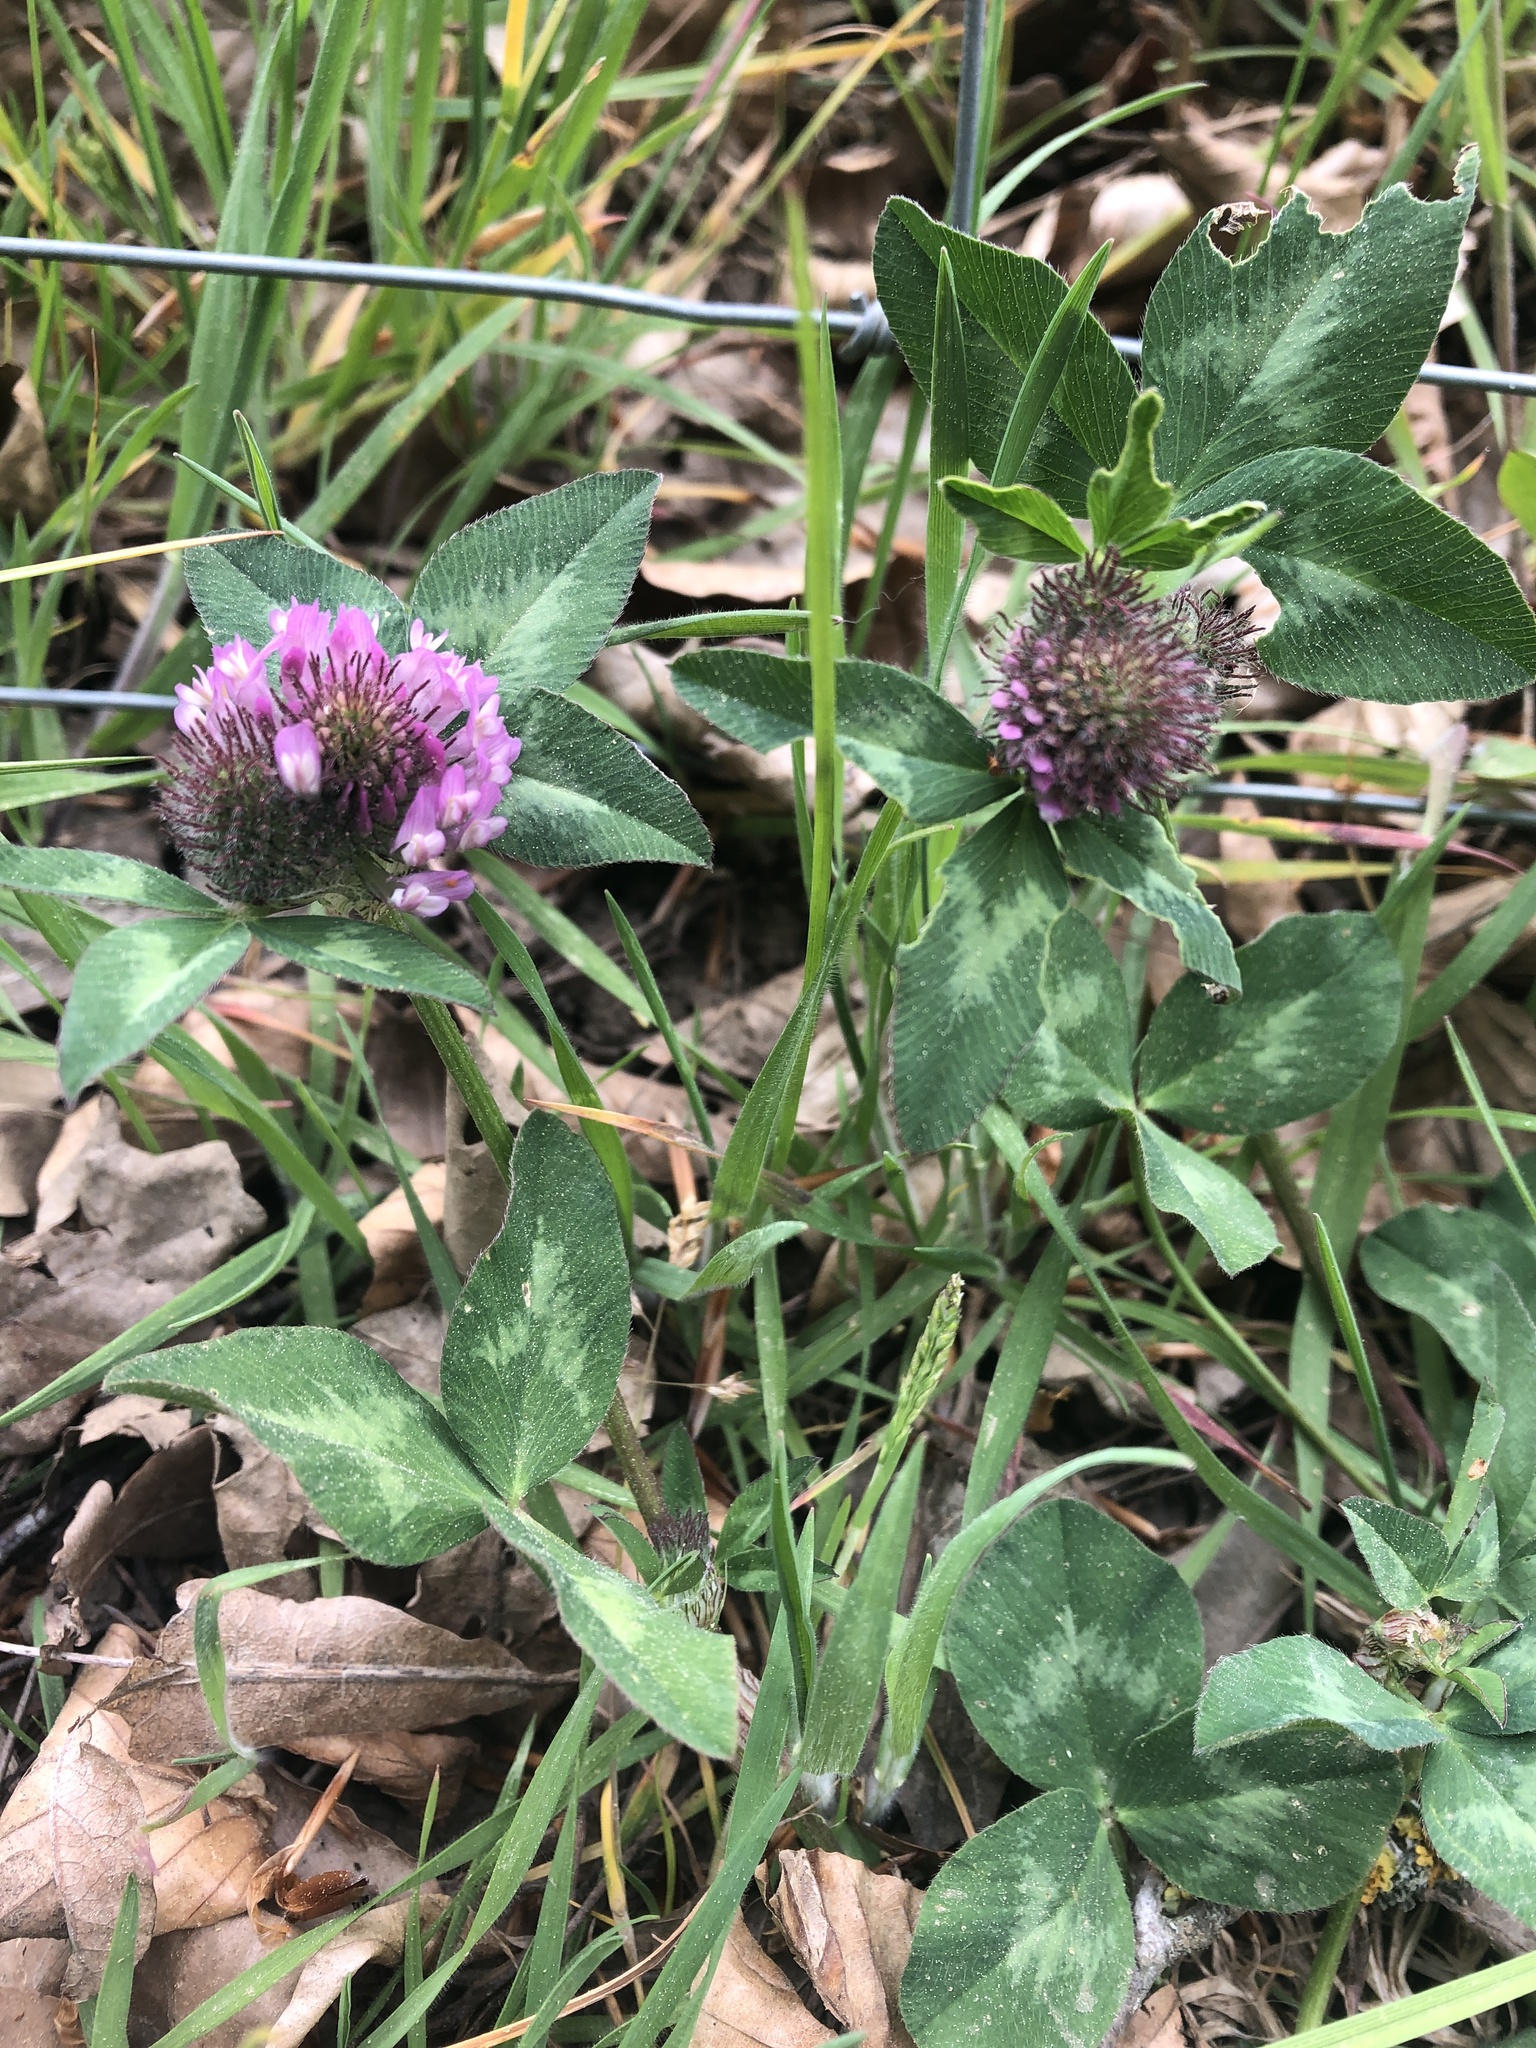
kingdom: Plantae
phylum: Tracheophyta
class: Magnoliopsida
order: Fabales
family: Fabaceae
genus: Trifolium
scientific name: Trifolium pratense
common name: Red clover
